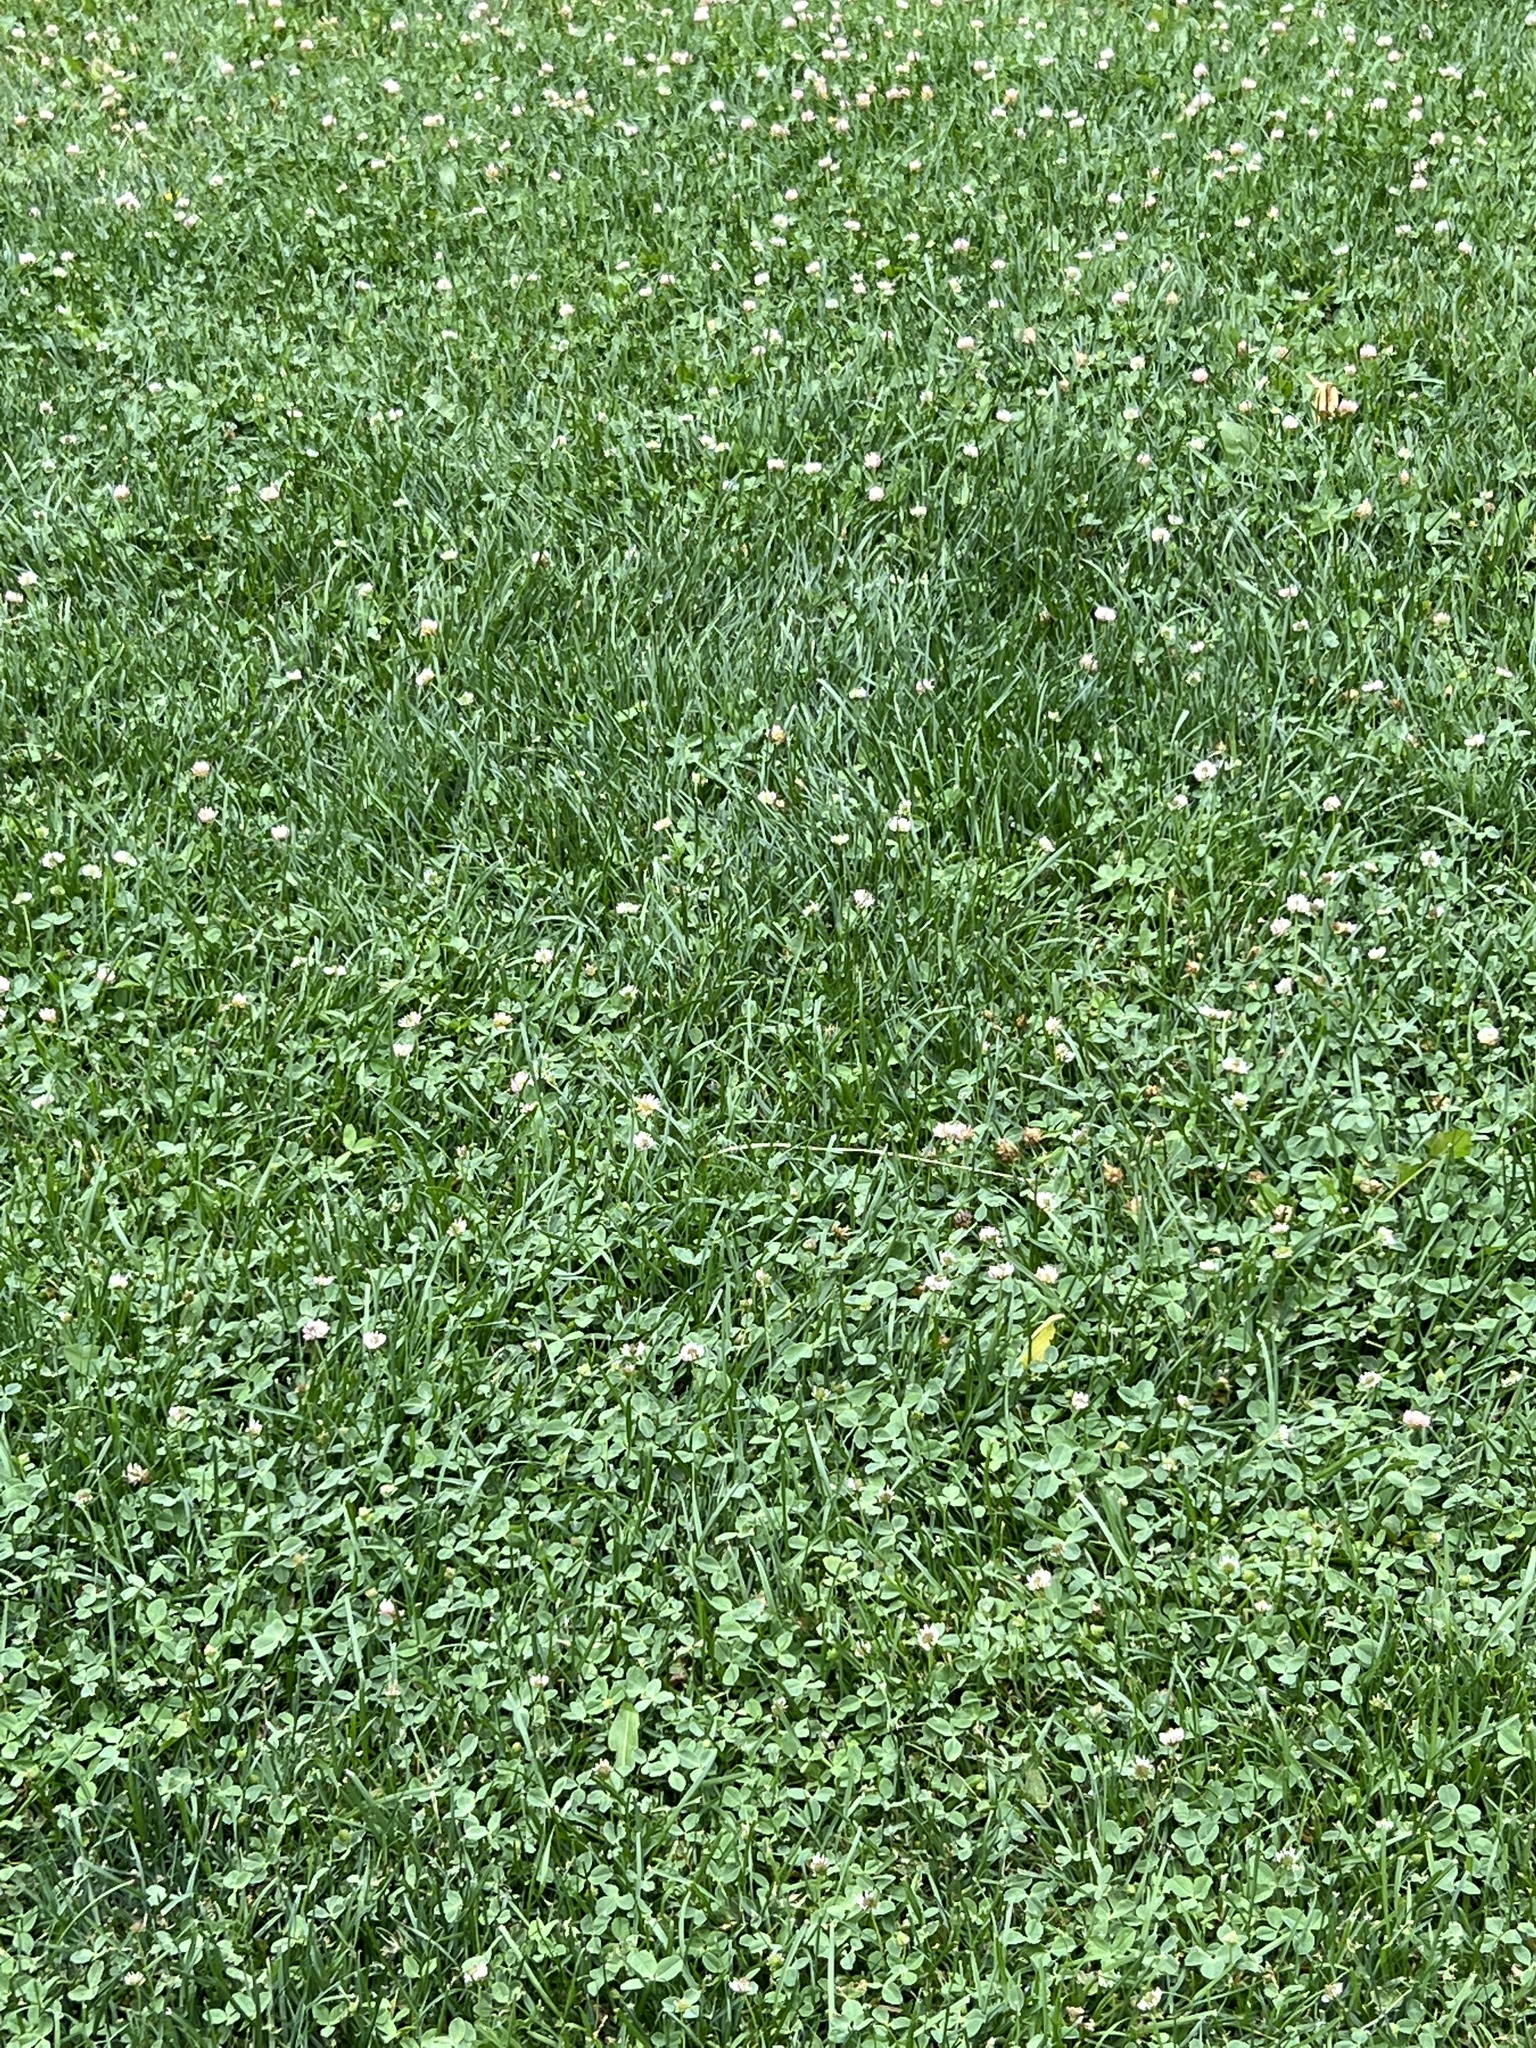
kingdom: Plantae
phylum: Tracheophyta
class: Magnoliopsida
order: Fabales
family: Fabaceae
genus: Trifolium
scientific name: Trifolium fragiferum
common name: Strawberry clover
